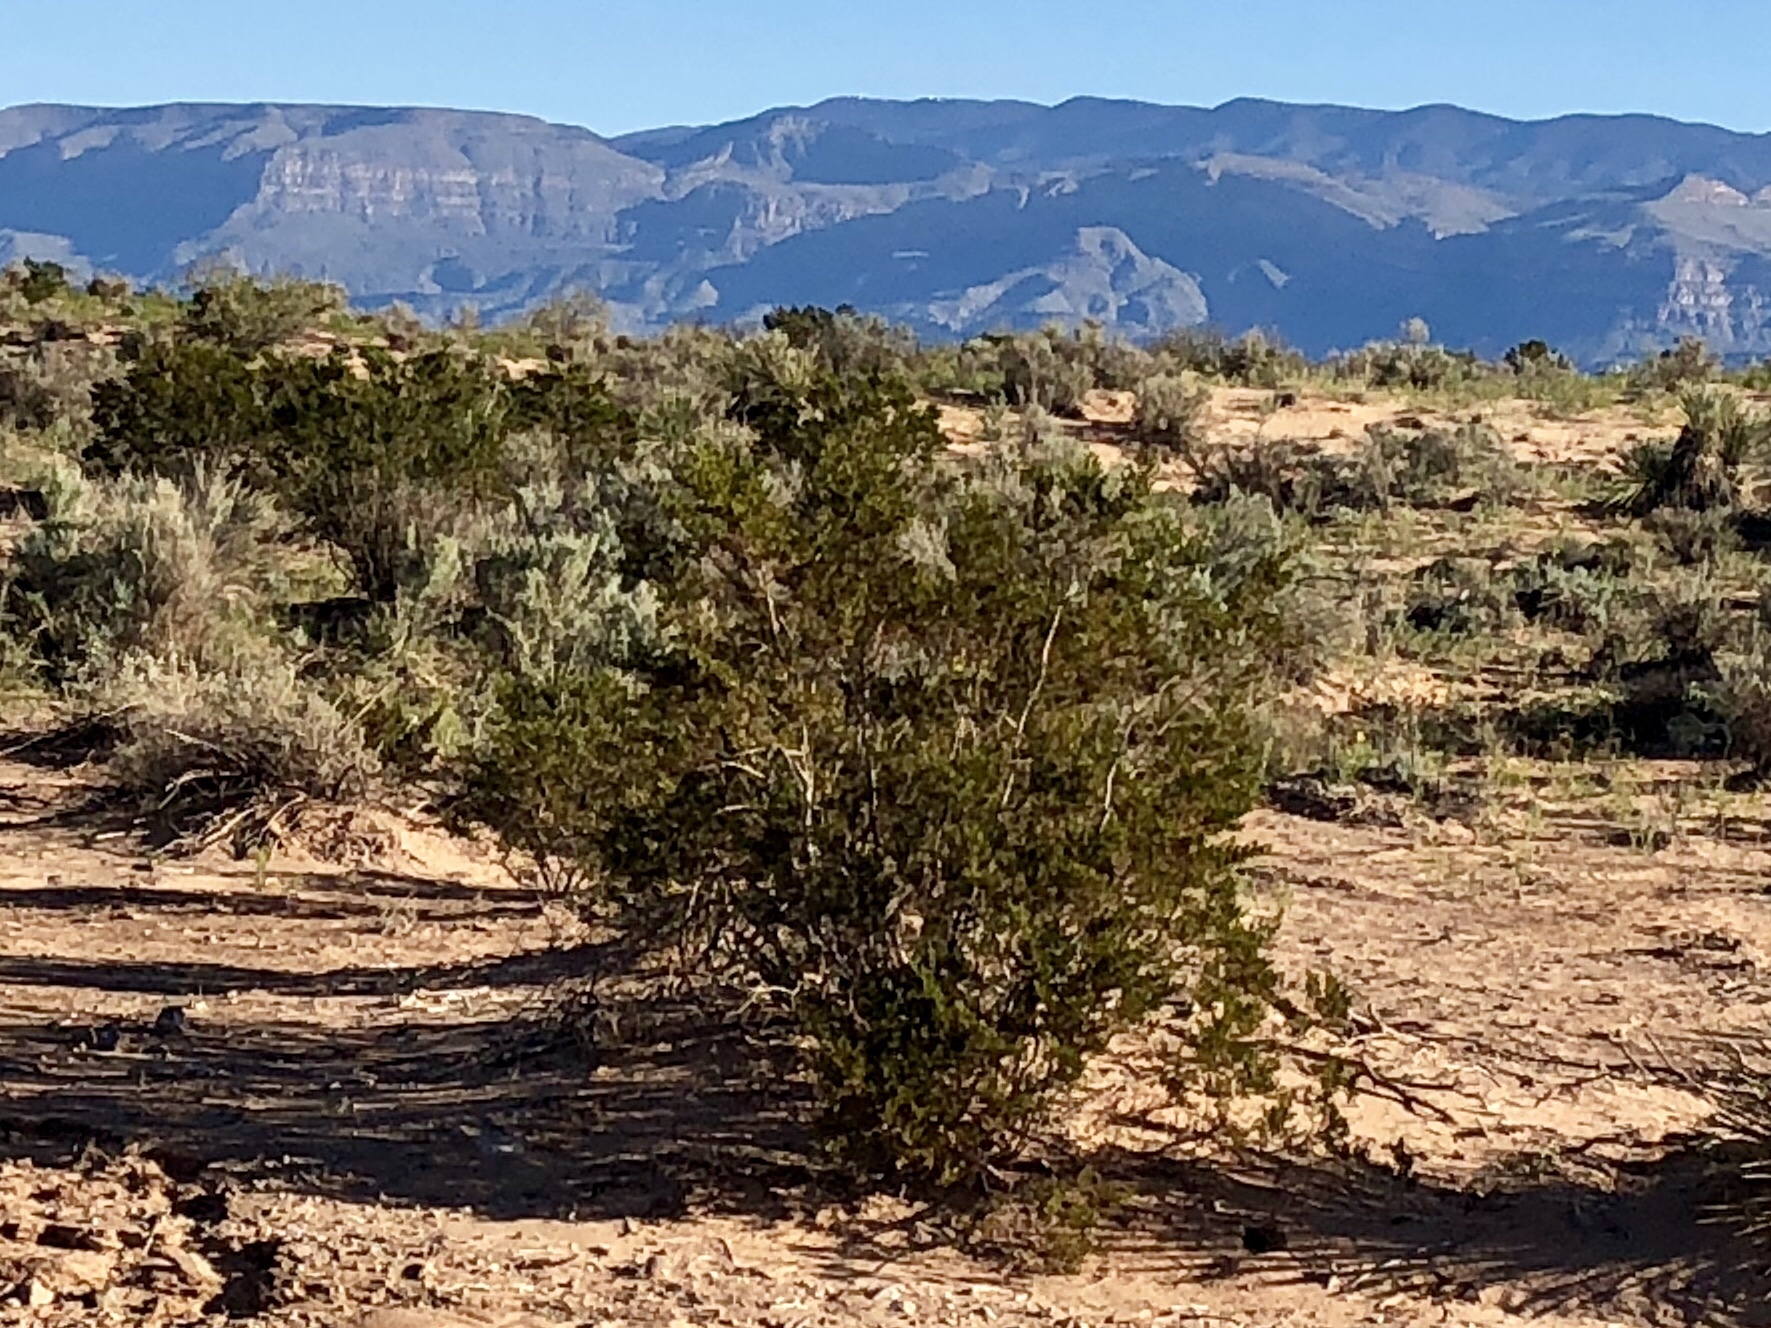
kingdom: Plantae
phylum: Tracheophyta
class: Magnoliopsida
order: Zygophyllales
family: Zygophyllaceae
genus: Larrea
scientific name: Larrea tridentata
